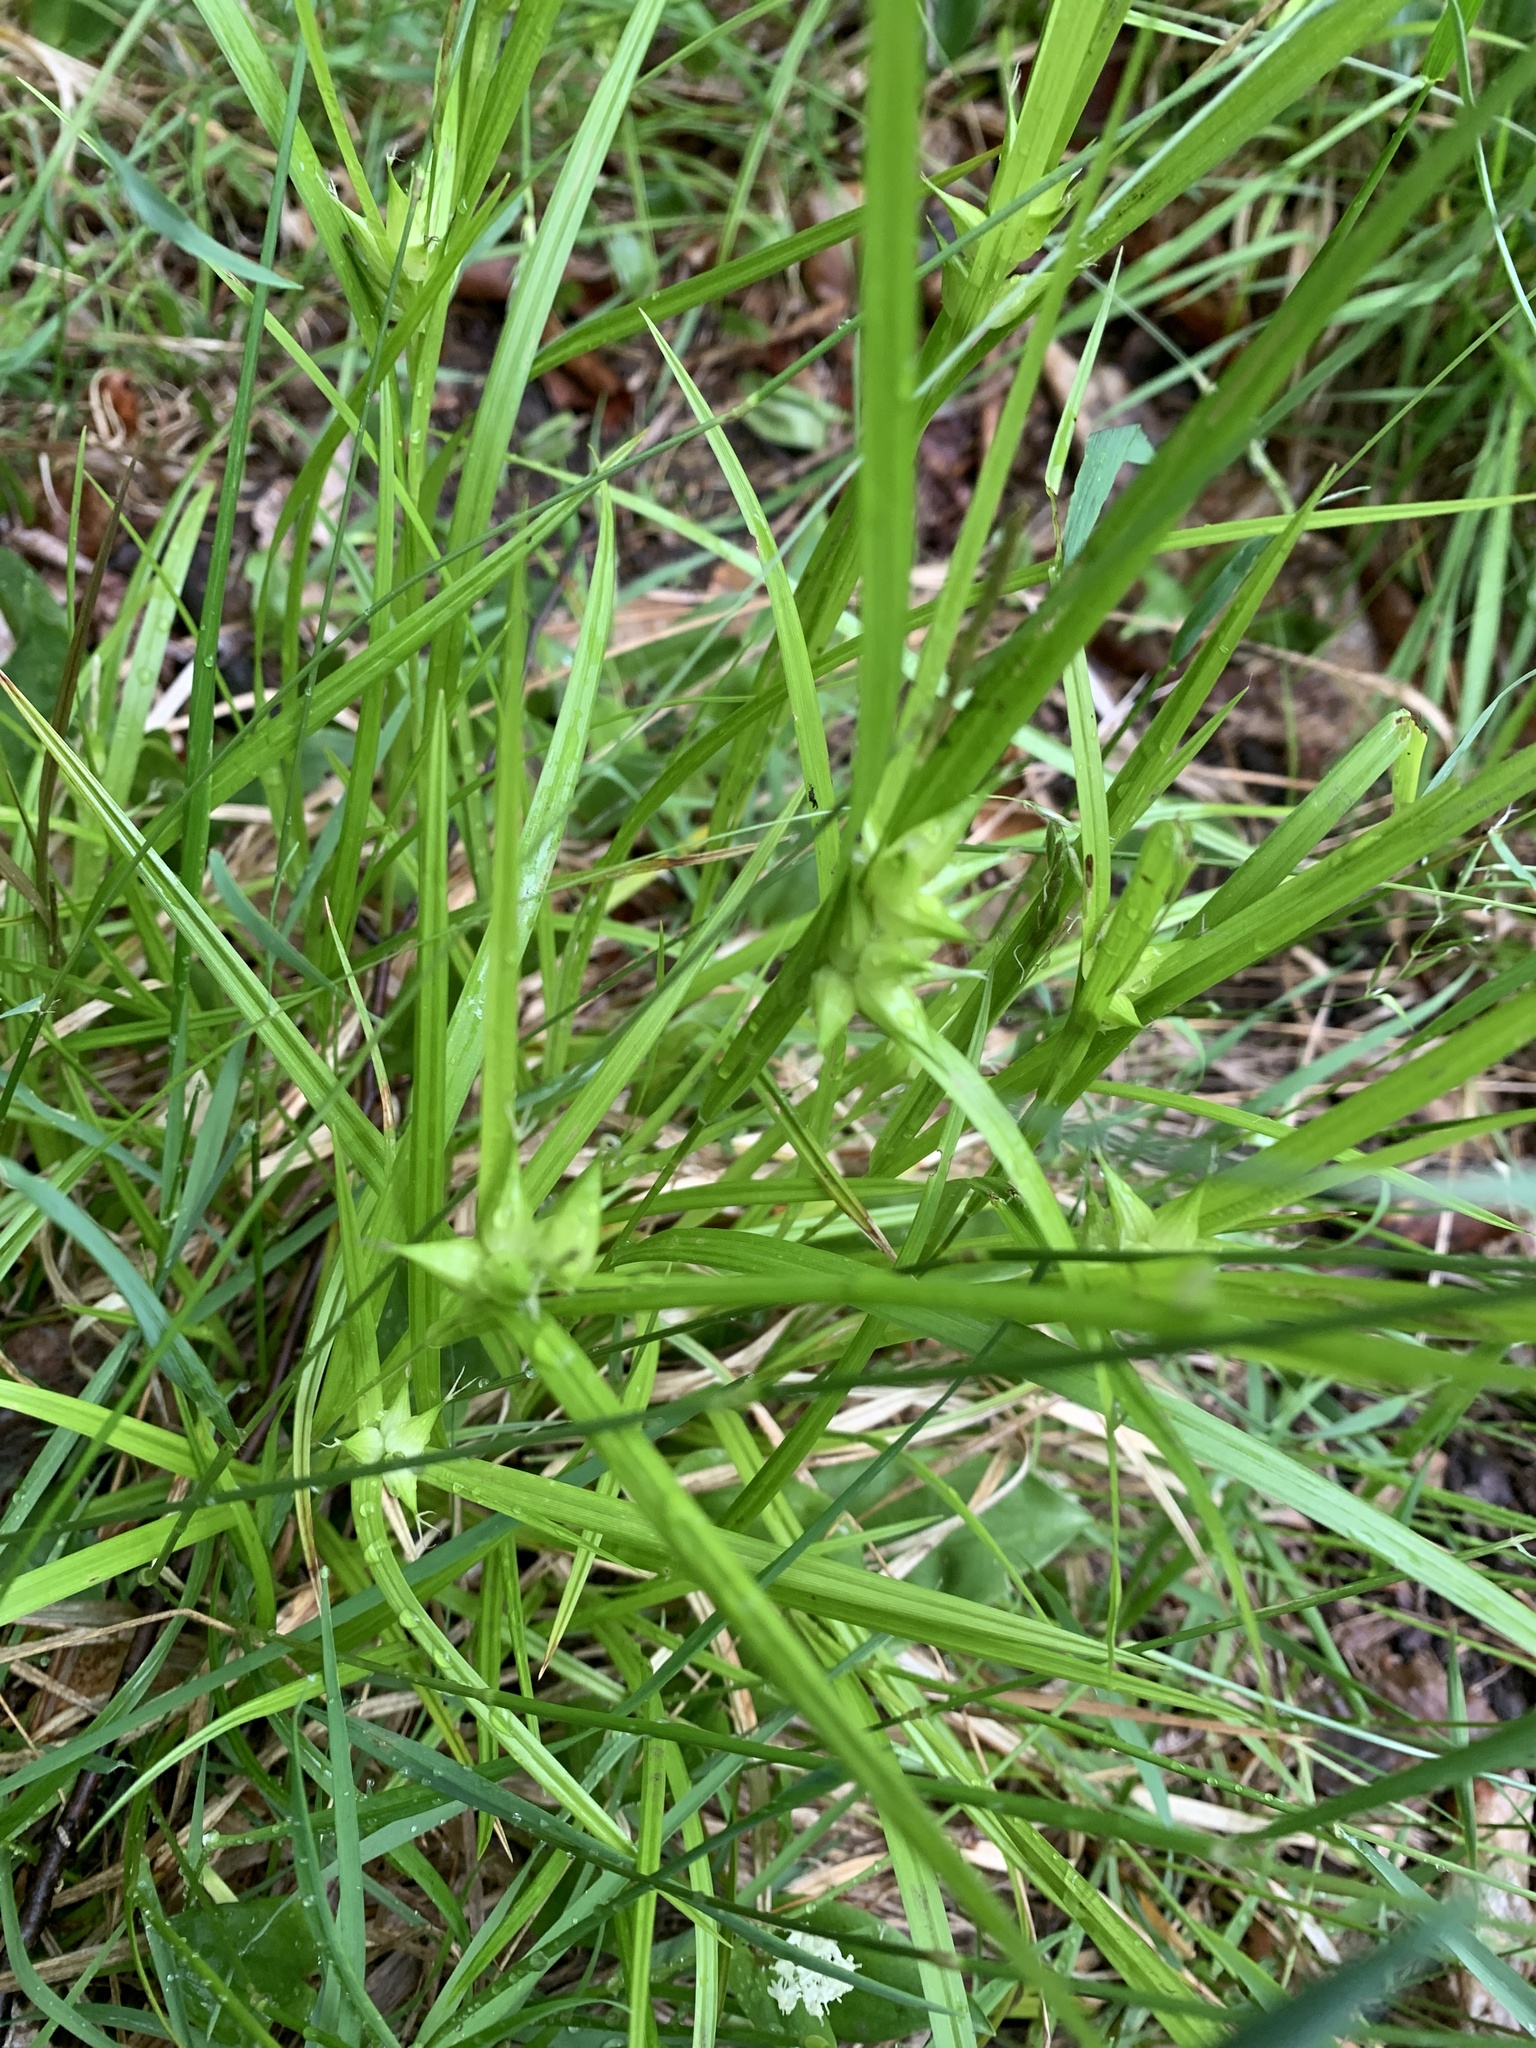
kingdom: Plantae
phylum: Tracheophyta
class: Liliopsida
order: Poales
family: Cyperaceae
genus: Carex
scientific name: Carex intumescens
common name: Greater bladder sedge
